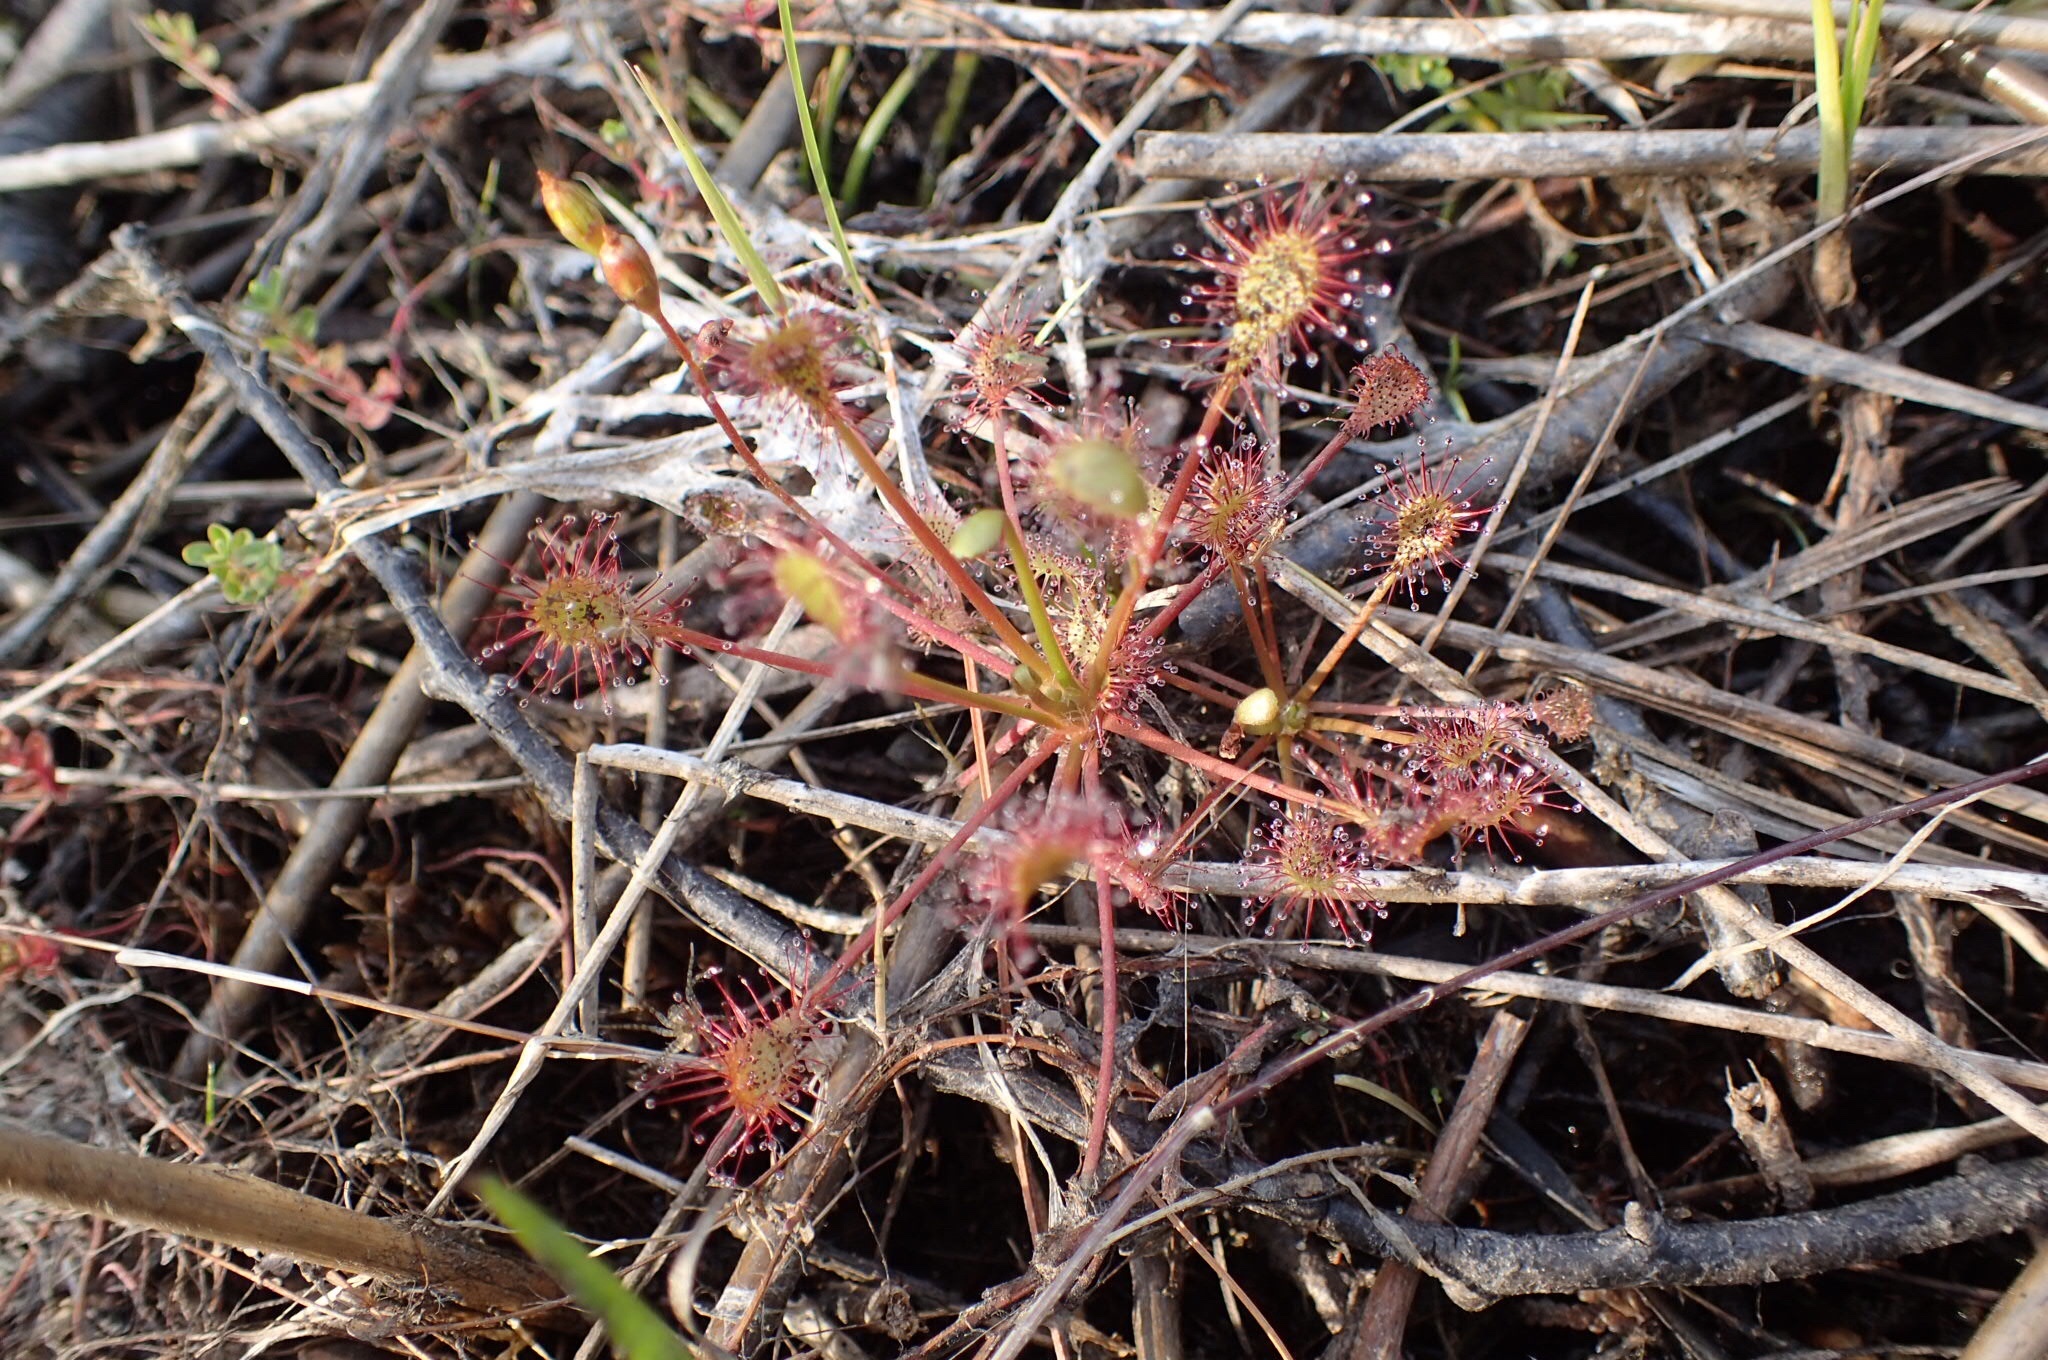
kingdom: Plantae
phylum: Tracheophyta
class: Magnoliopsida
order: Caryophyllales
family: Droseraceae
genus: Drosera
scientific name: Drosera intermedia
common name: Oblong-leaved sundew
